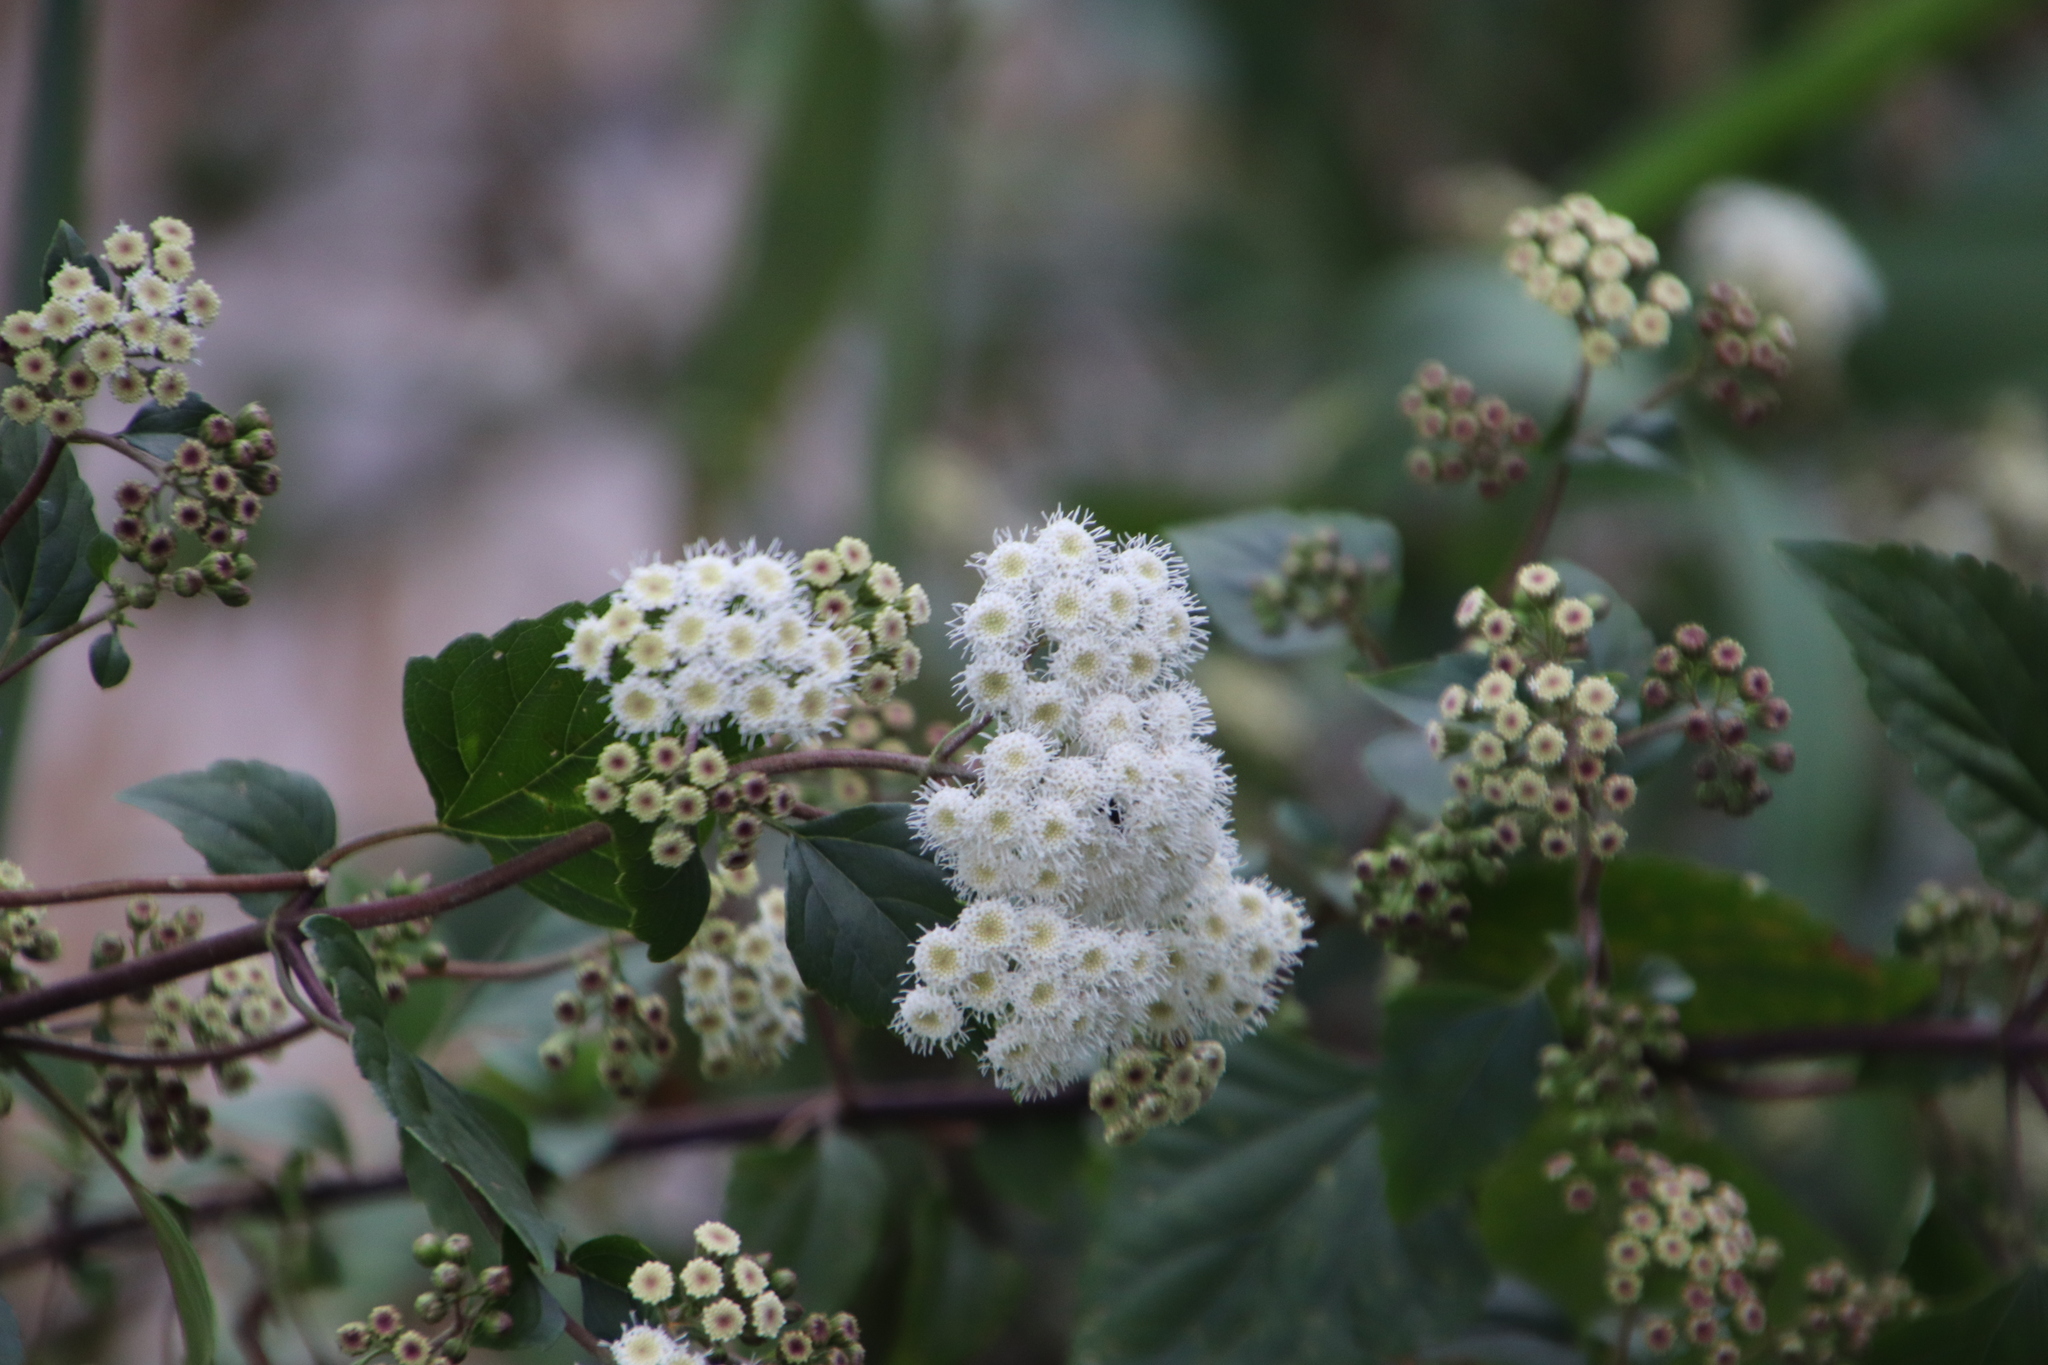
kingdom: Plantae
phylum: Tracheophyta
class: Magnoliopsida
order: Asterales
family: Asteraceae
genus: Ageratina
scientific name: Ageratina adenophora
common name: Sticky snakeroot
